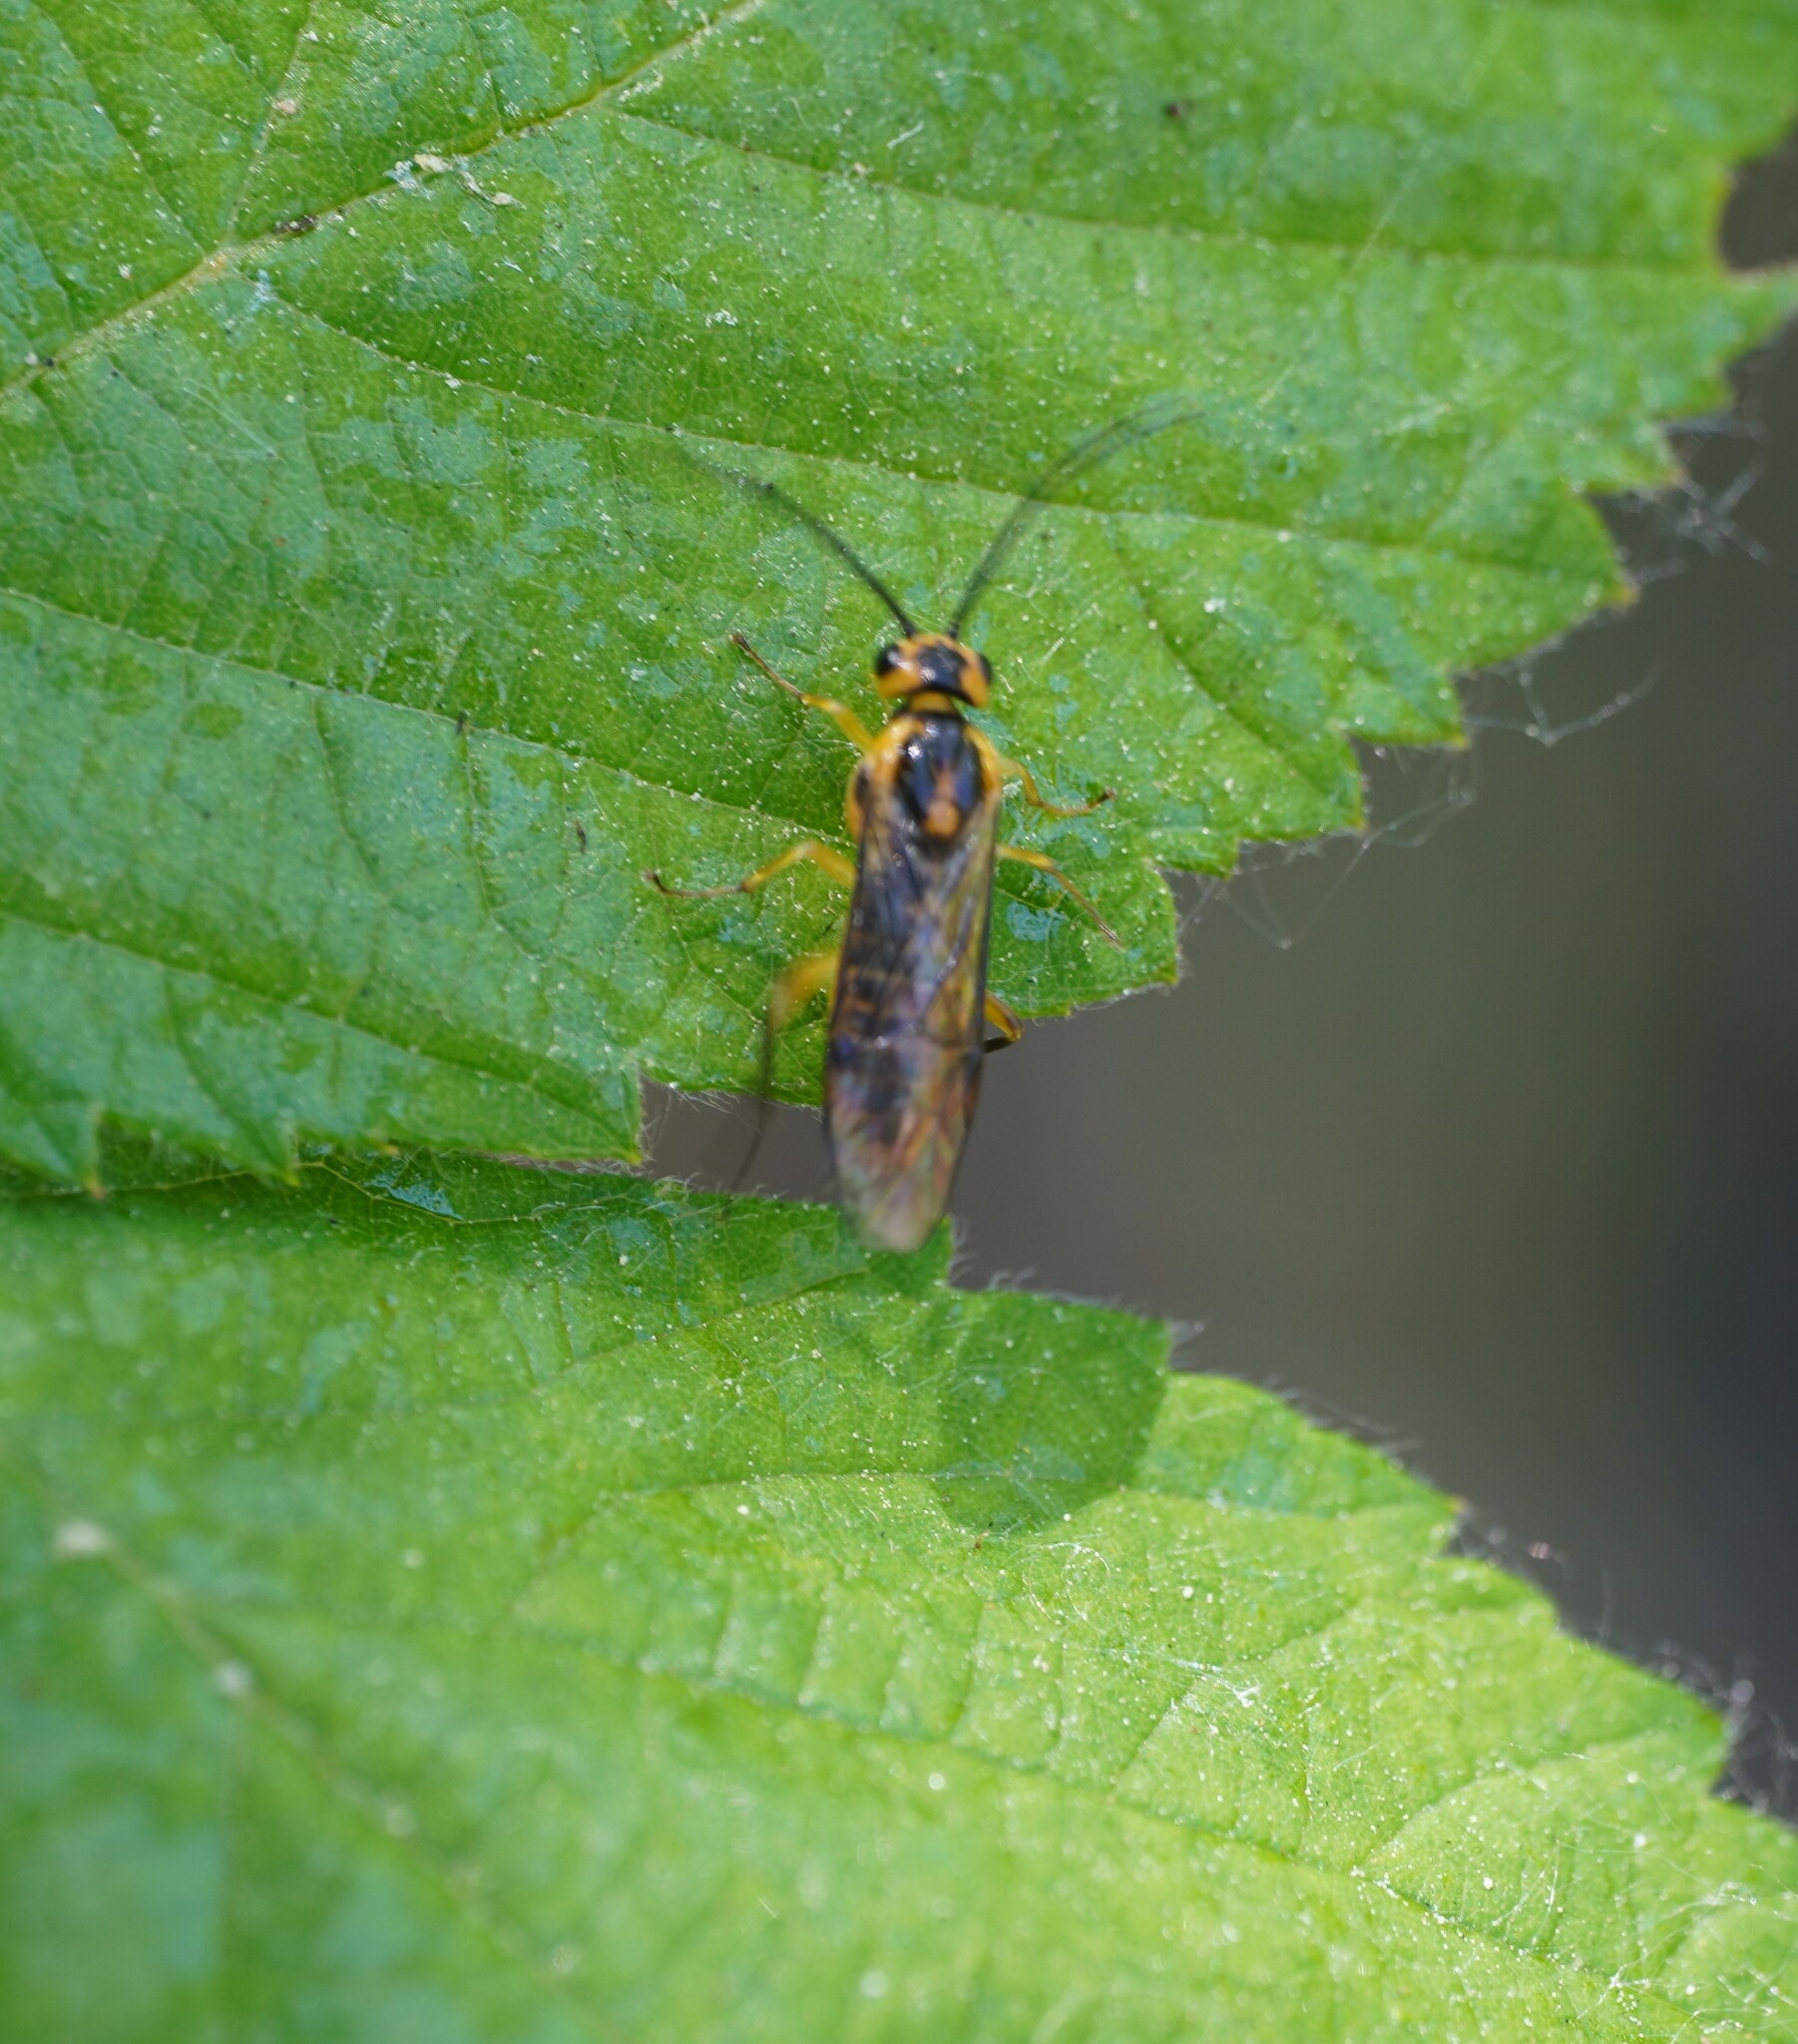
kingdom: Animalia
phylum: Arthropoda
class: Insecta
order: Hymenoptera
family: Tenthredinidae
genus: Euura
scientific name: Euura tibialis
